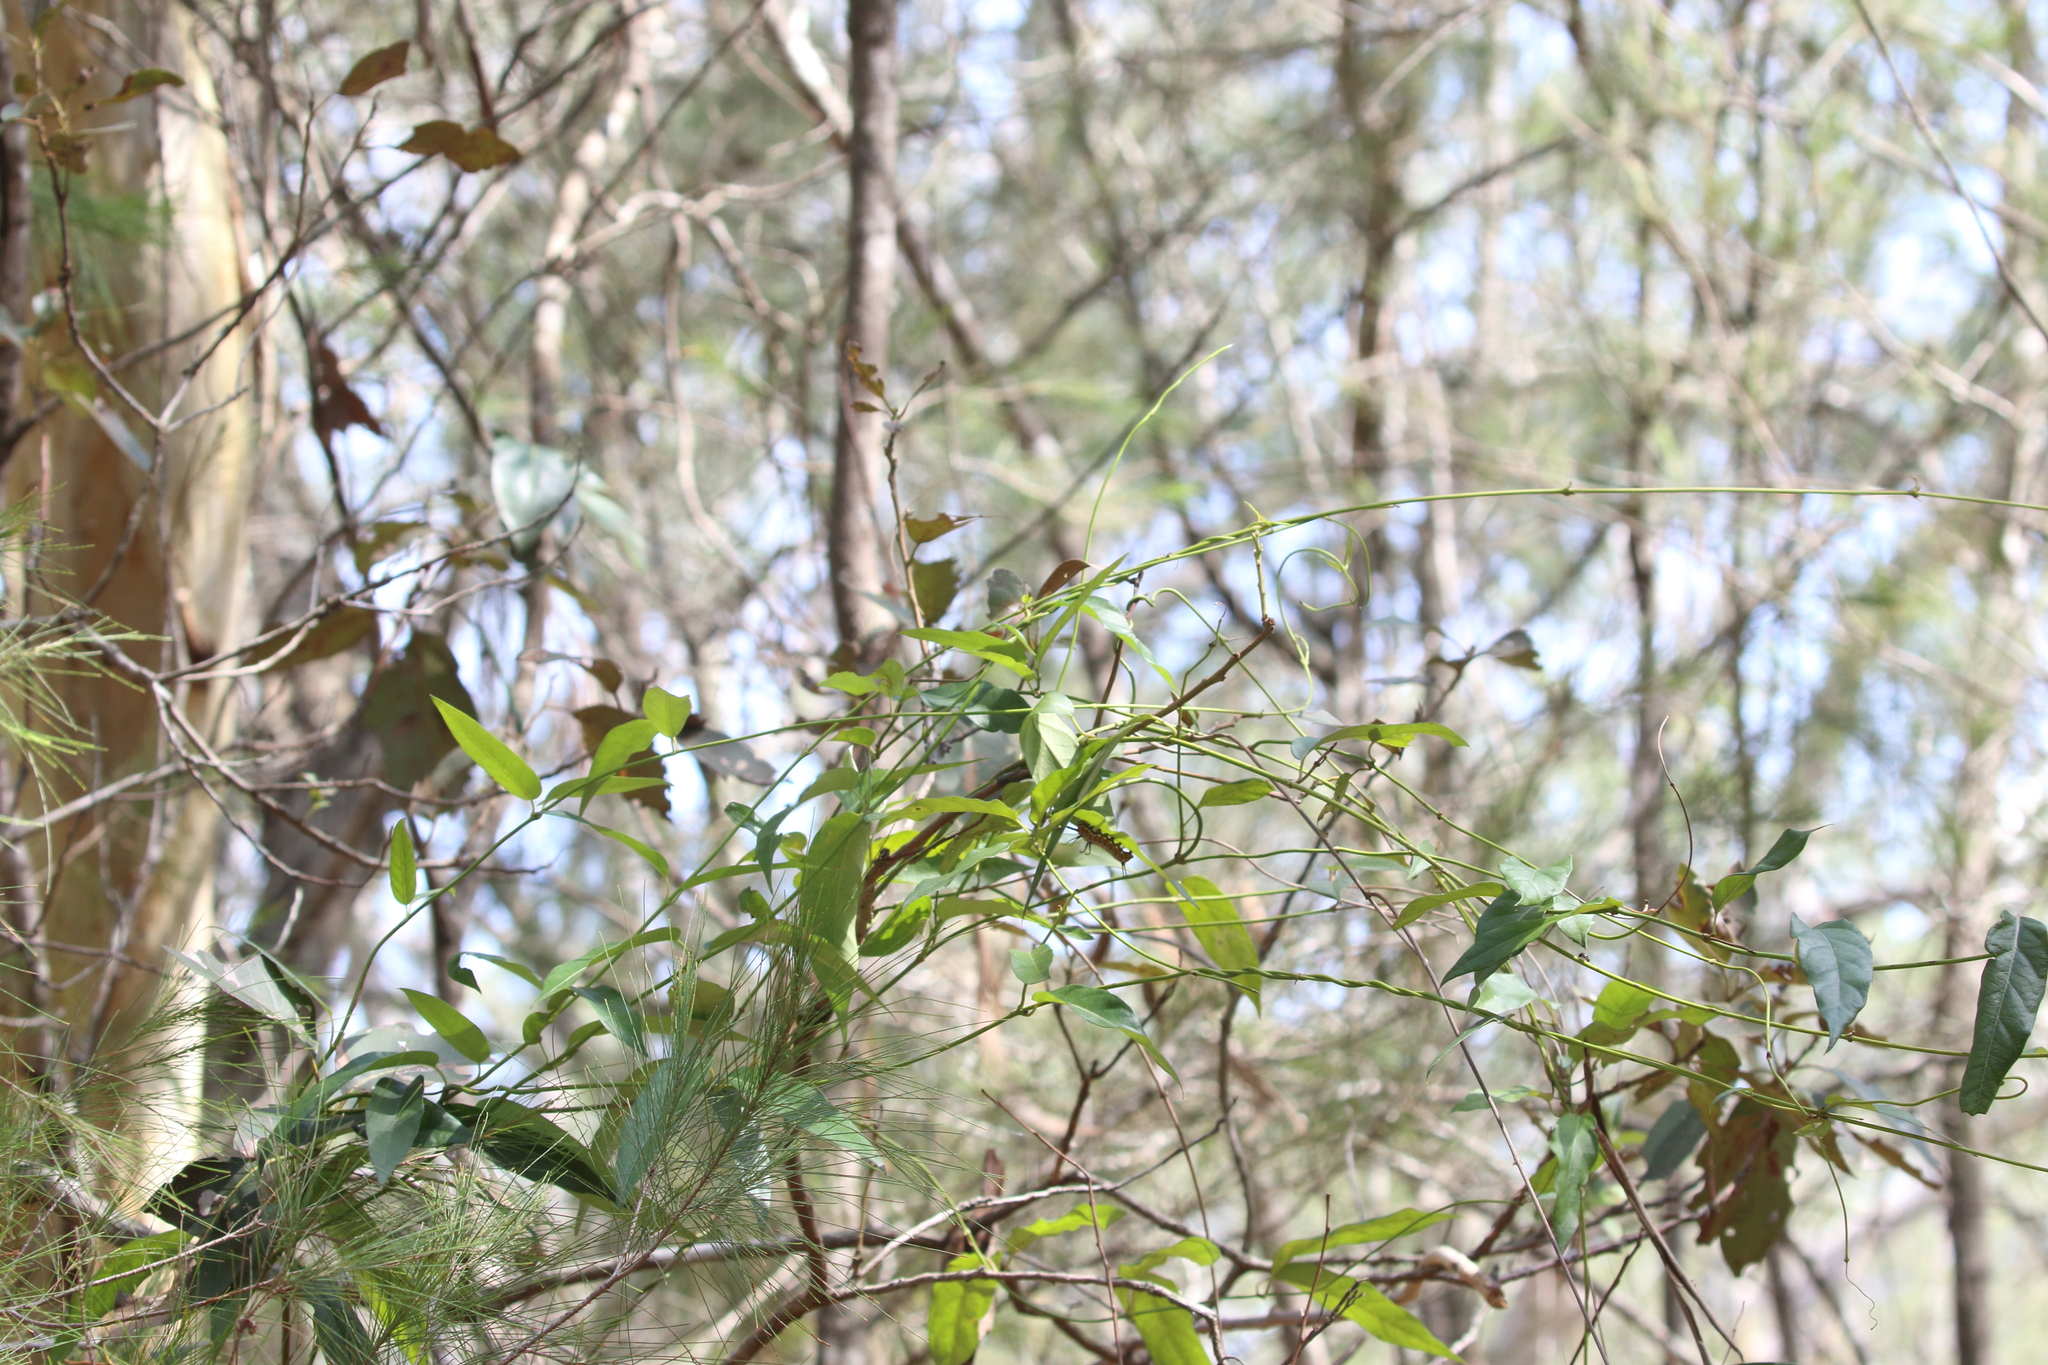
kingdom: Plantae
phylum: Tracheophyta
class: Magnoliopsida
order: Gentianales
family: Apocynaceae
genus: Parsonsia
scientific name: Parsonsia straminea
